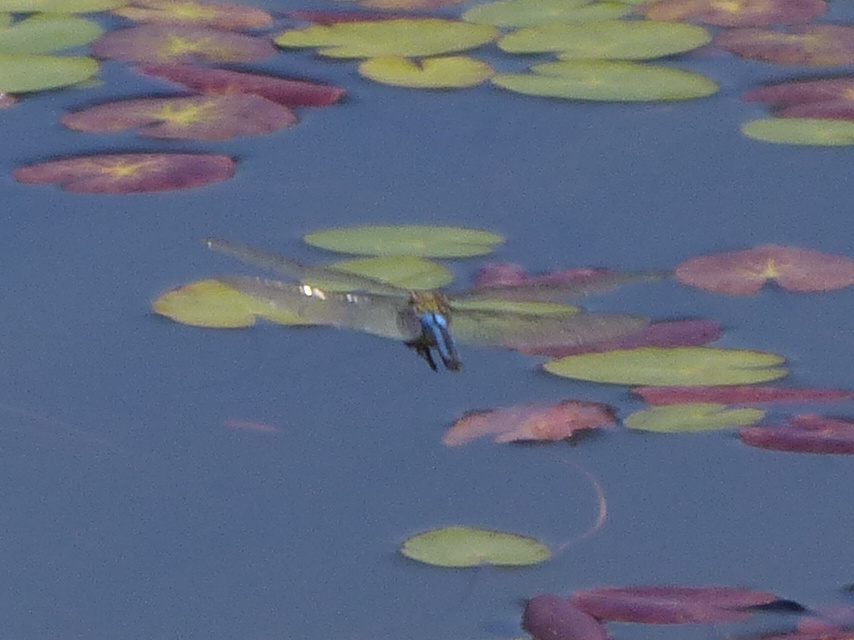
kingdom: Animalia
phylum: Arthropoda
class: Insecta
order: Odonata
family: Aeshnidae
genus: Anax
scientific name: Anax imperator
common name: Emperor dragonfly
